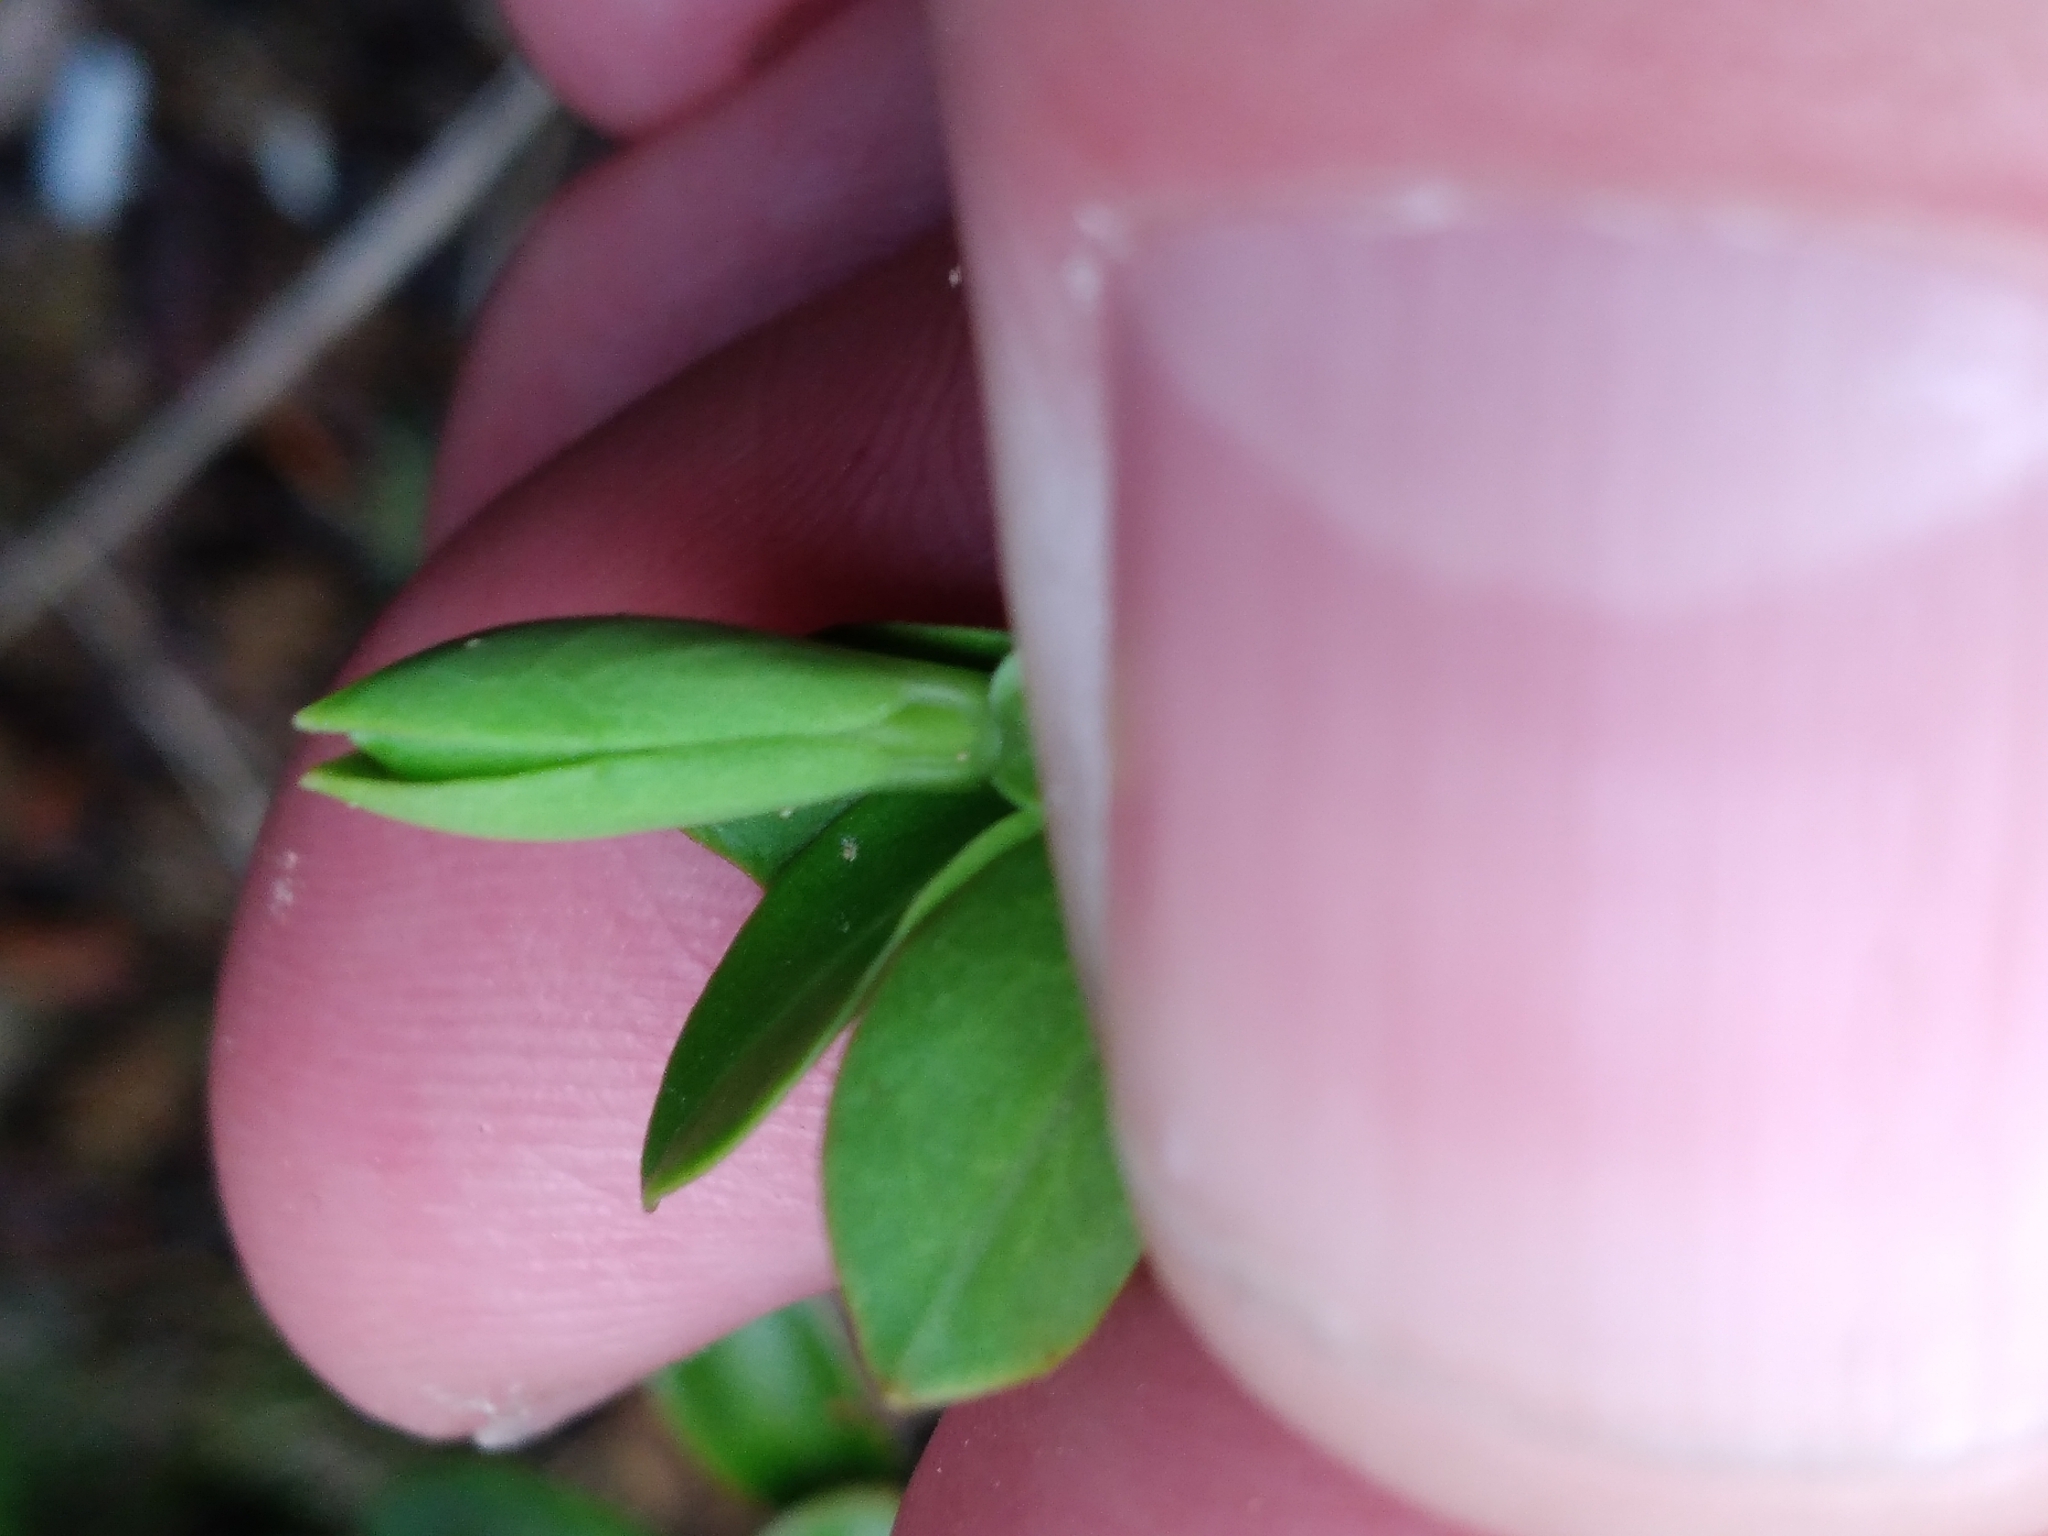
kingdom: Plantae
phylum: Tracheophyta
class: Magnoliopsida
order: Lamiales
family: Plantaginaceae
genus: Veronica
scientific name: Veronica vernicosa
